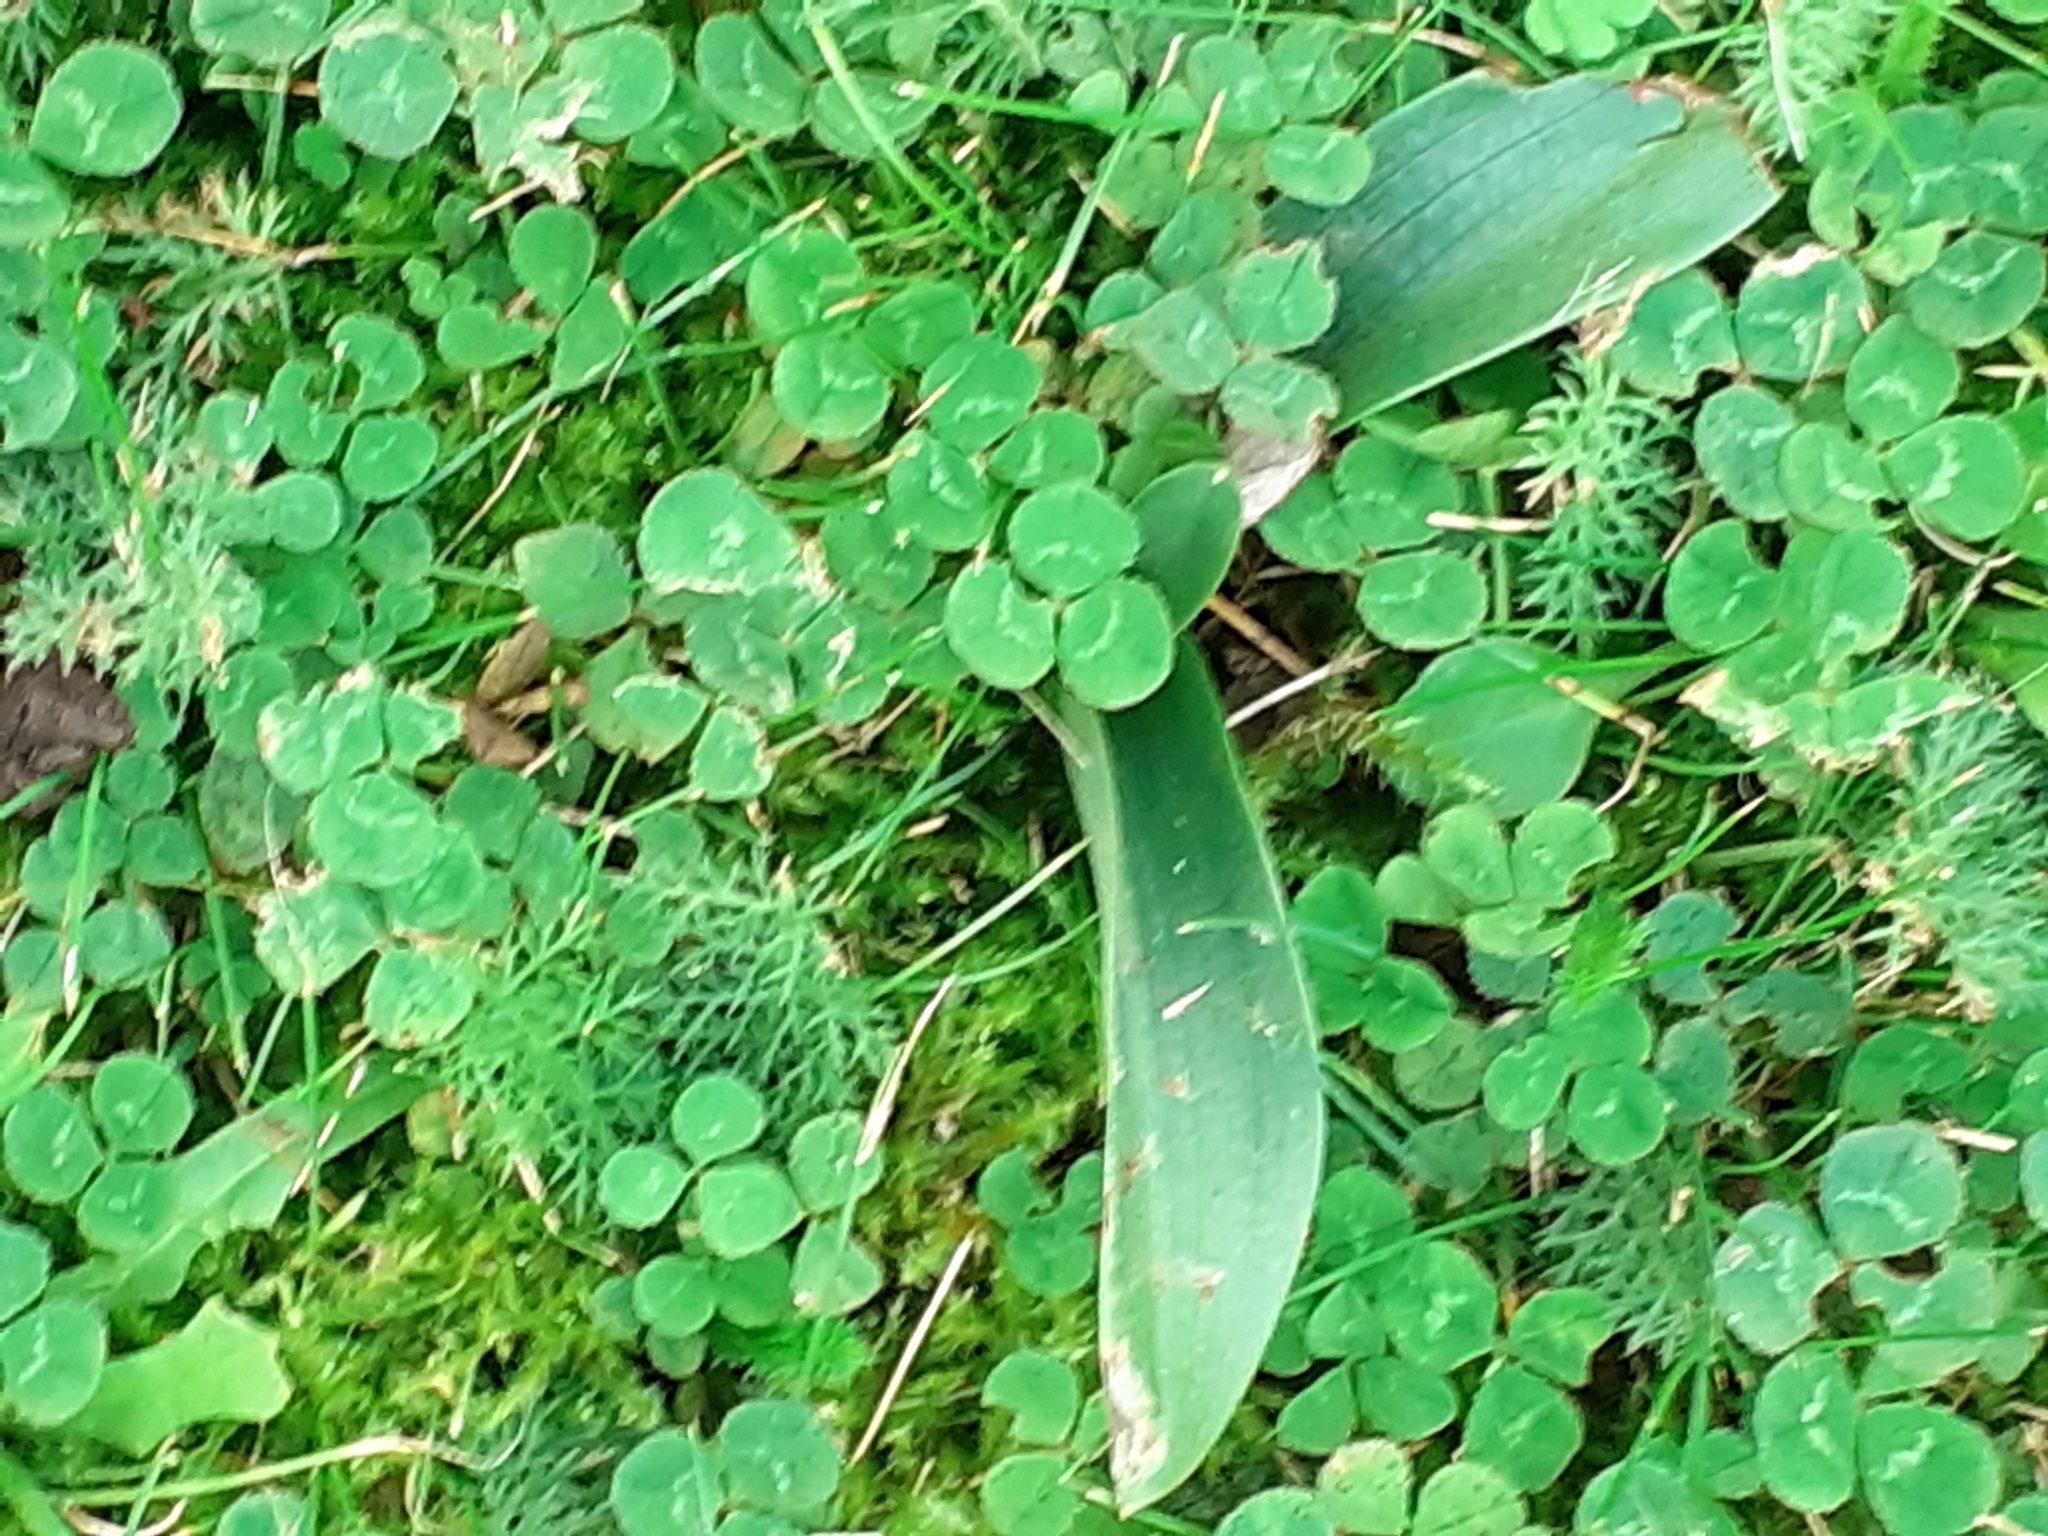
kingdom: Plantae
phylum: Tracheophyta
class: Liliopsida
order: Asparagales
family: Orchidaceae
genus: Ophrys
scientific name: Ophrys apifera
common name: Bee orchid
